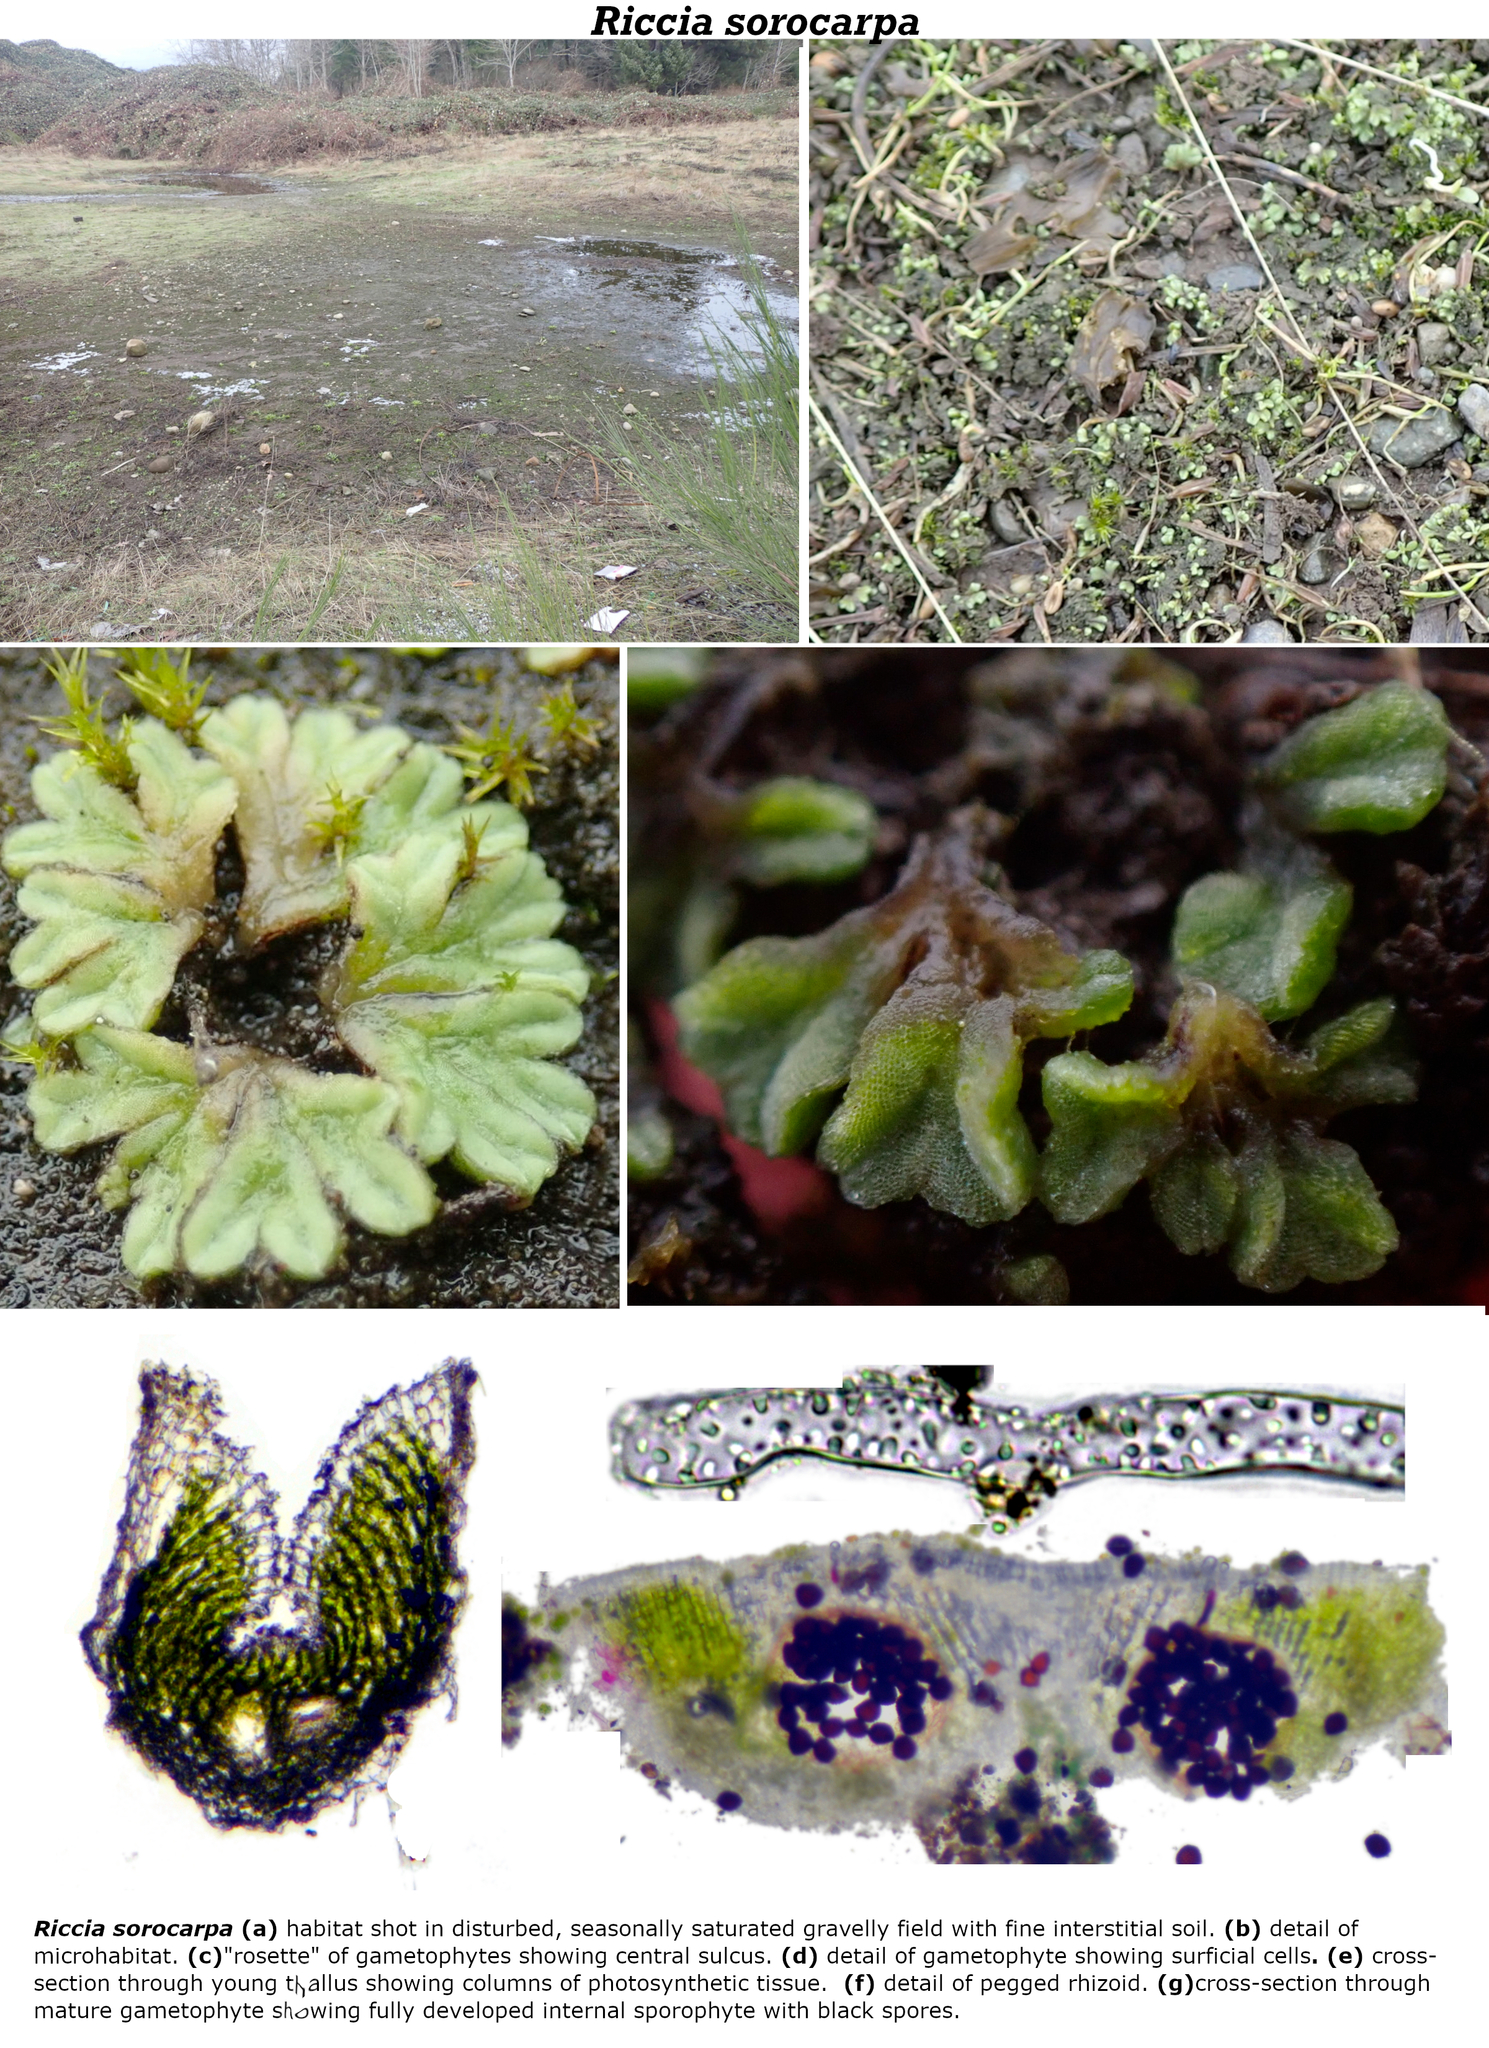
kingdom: Plantae
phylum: Marchantiophyta
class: Marchantiopsida
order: Marchantiales
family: Ricciaceae
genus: Riccia
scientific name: Riccia sorocarpa
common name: Common crystalwort
